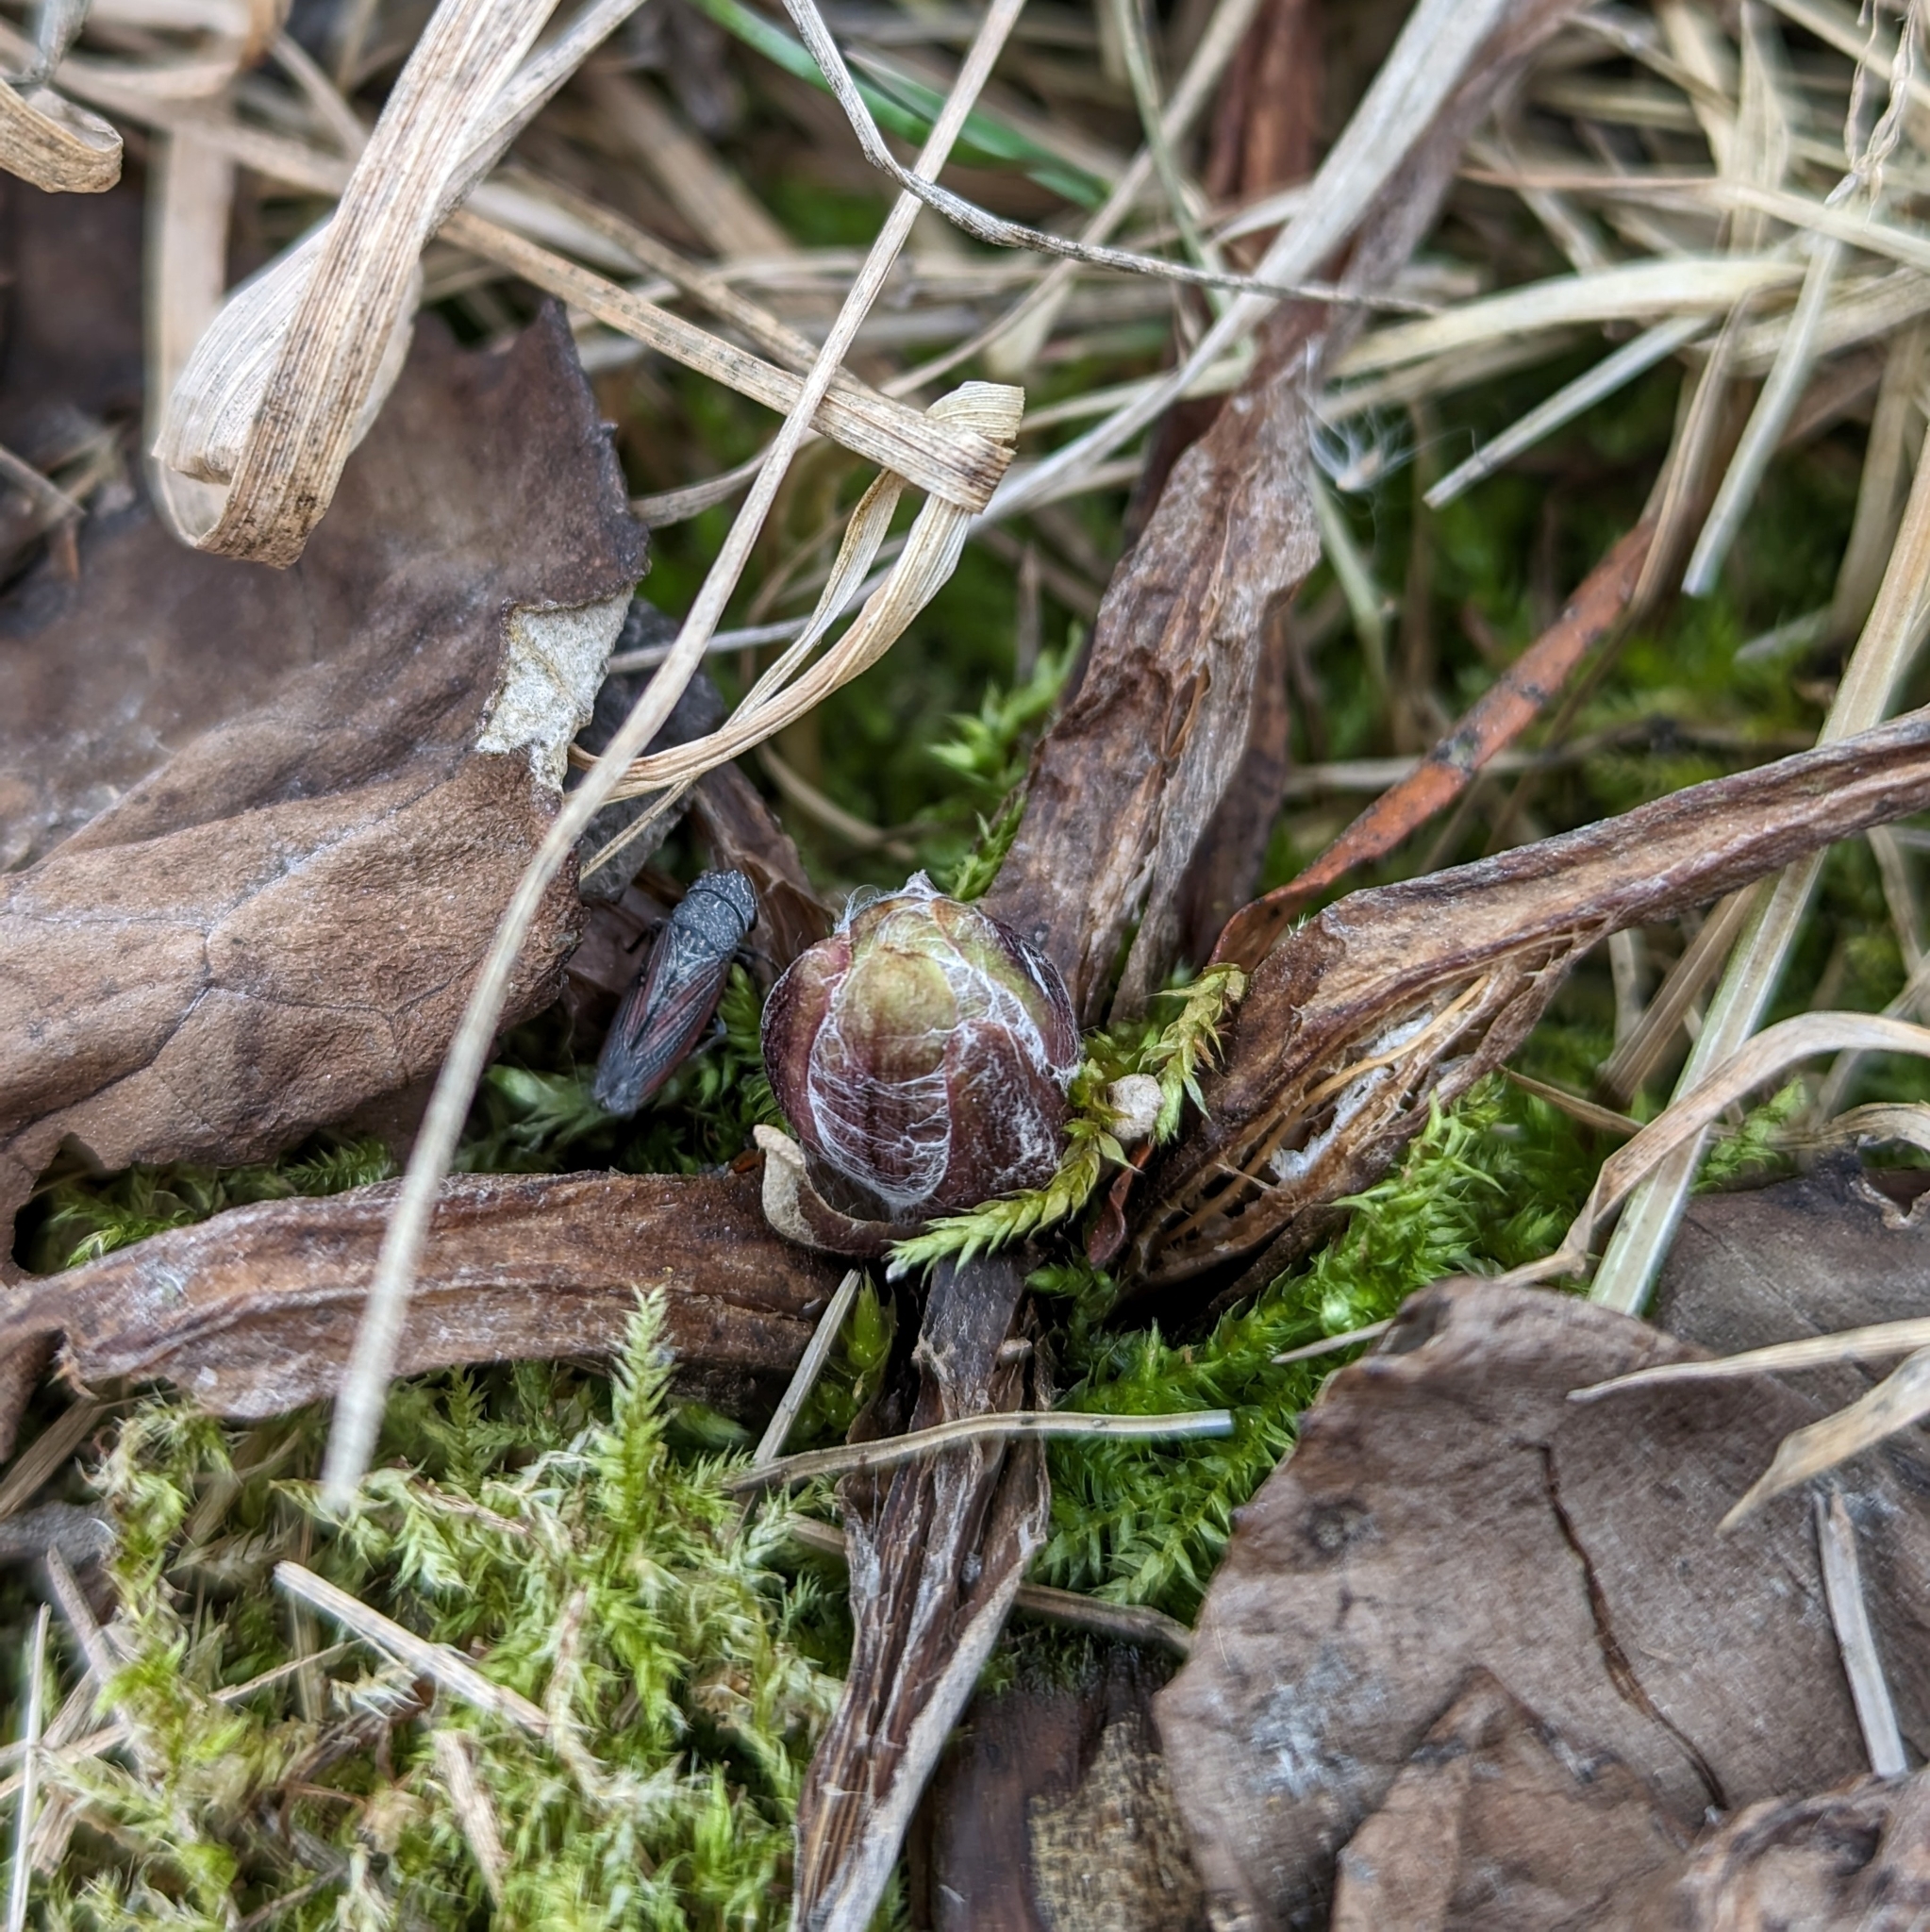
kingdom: Plantae
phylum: Tracheophyta
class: Magnoliopsida
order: Asterales
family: Asteraceae
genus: Tussilago
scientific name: Tussilago farfara
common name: Coltsfoot
